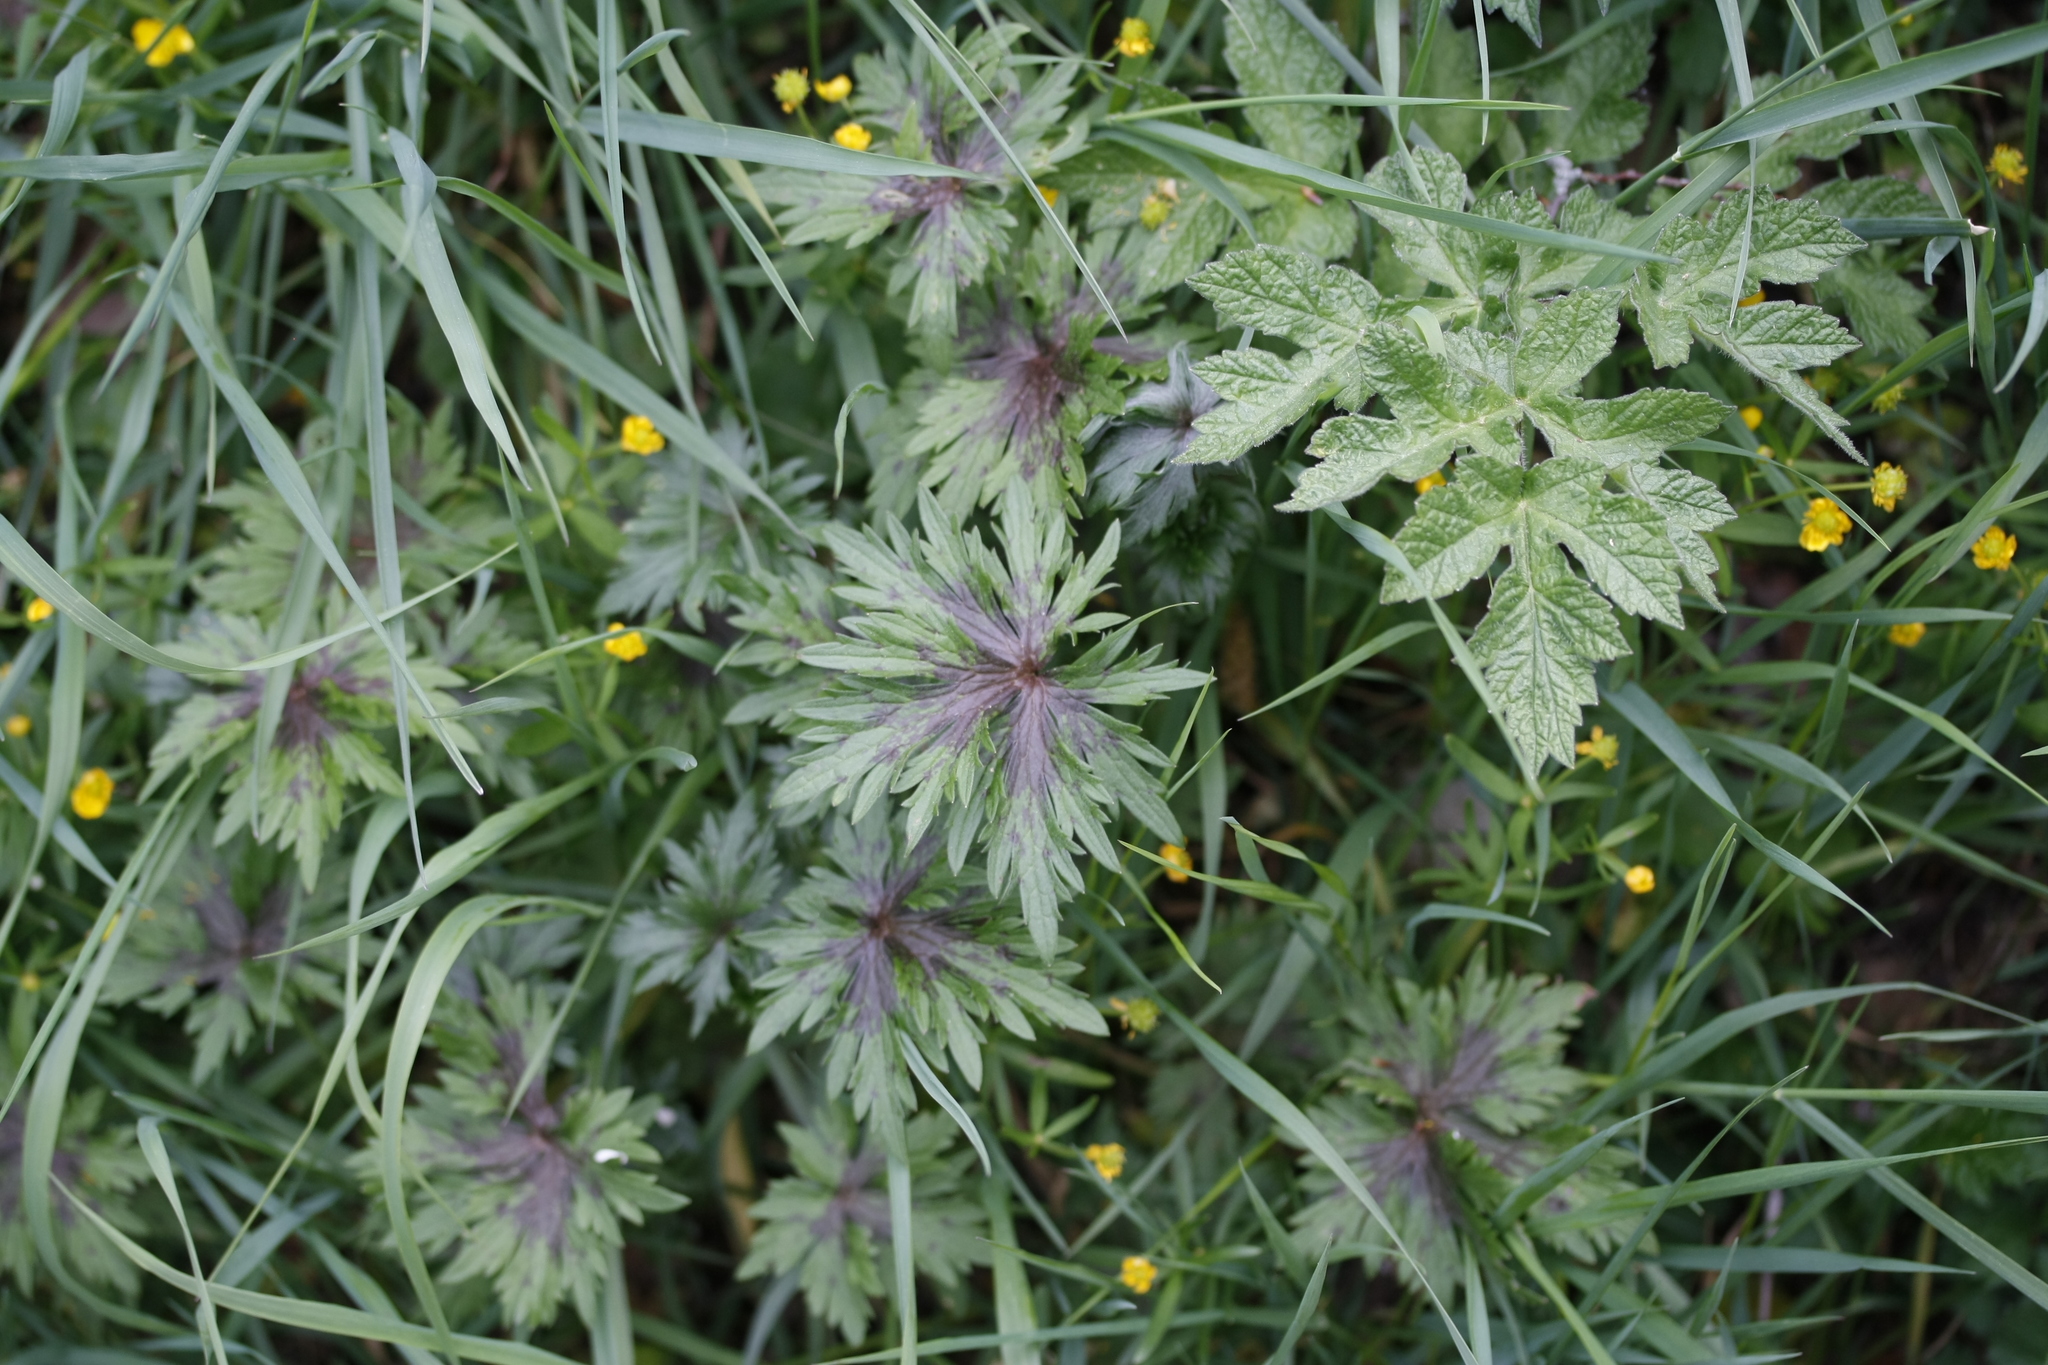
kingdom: Plantae
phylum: Tracheophyta
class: Magnoliopsida
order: Ranunculales
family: Ranunculaceae
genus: Ranunculus
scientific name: Ranunculus acris
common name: Meadow buttercup
